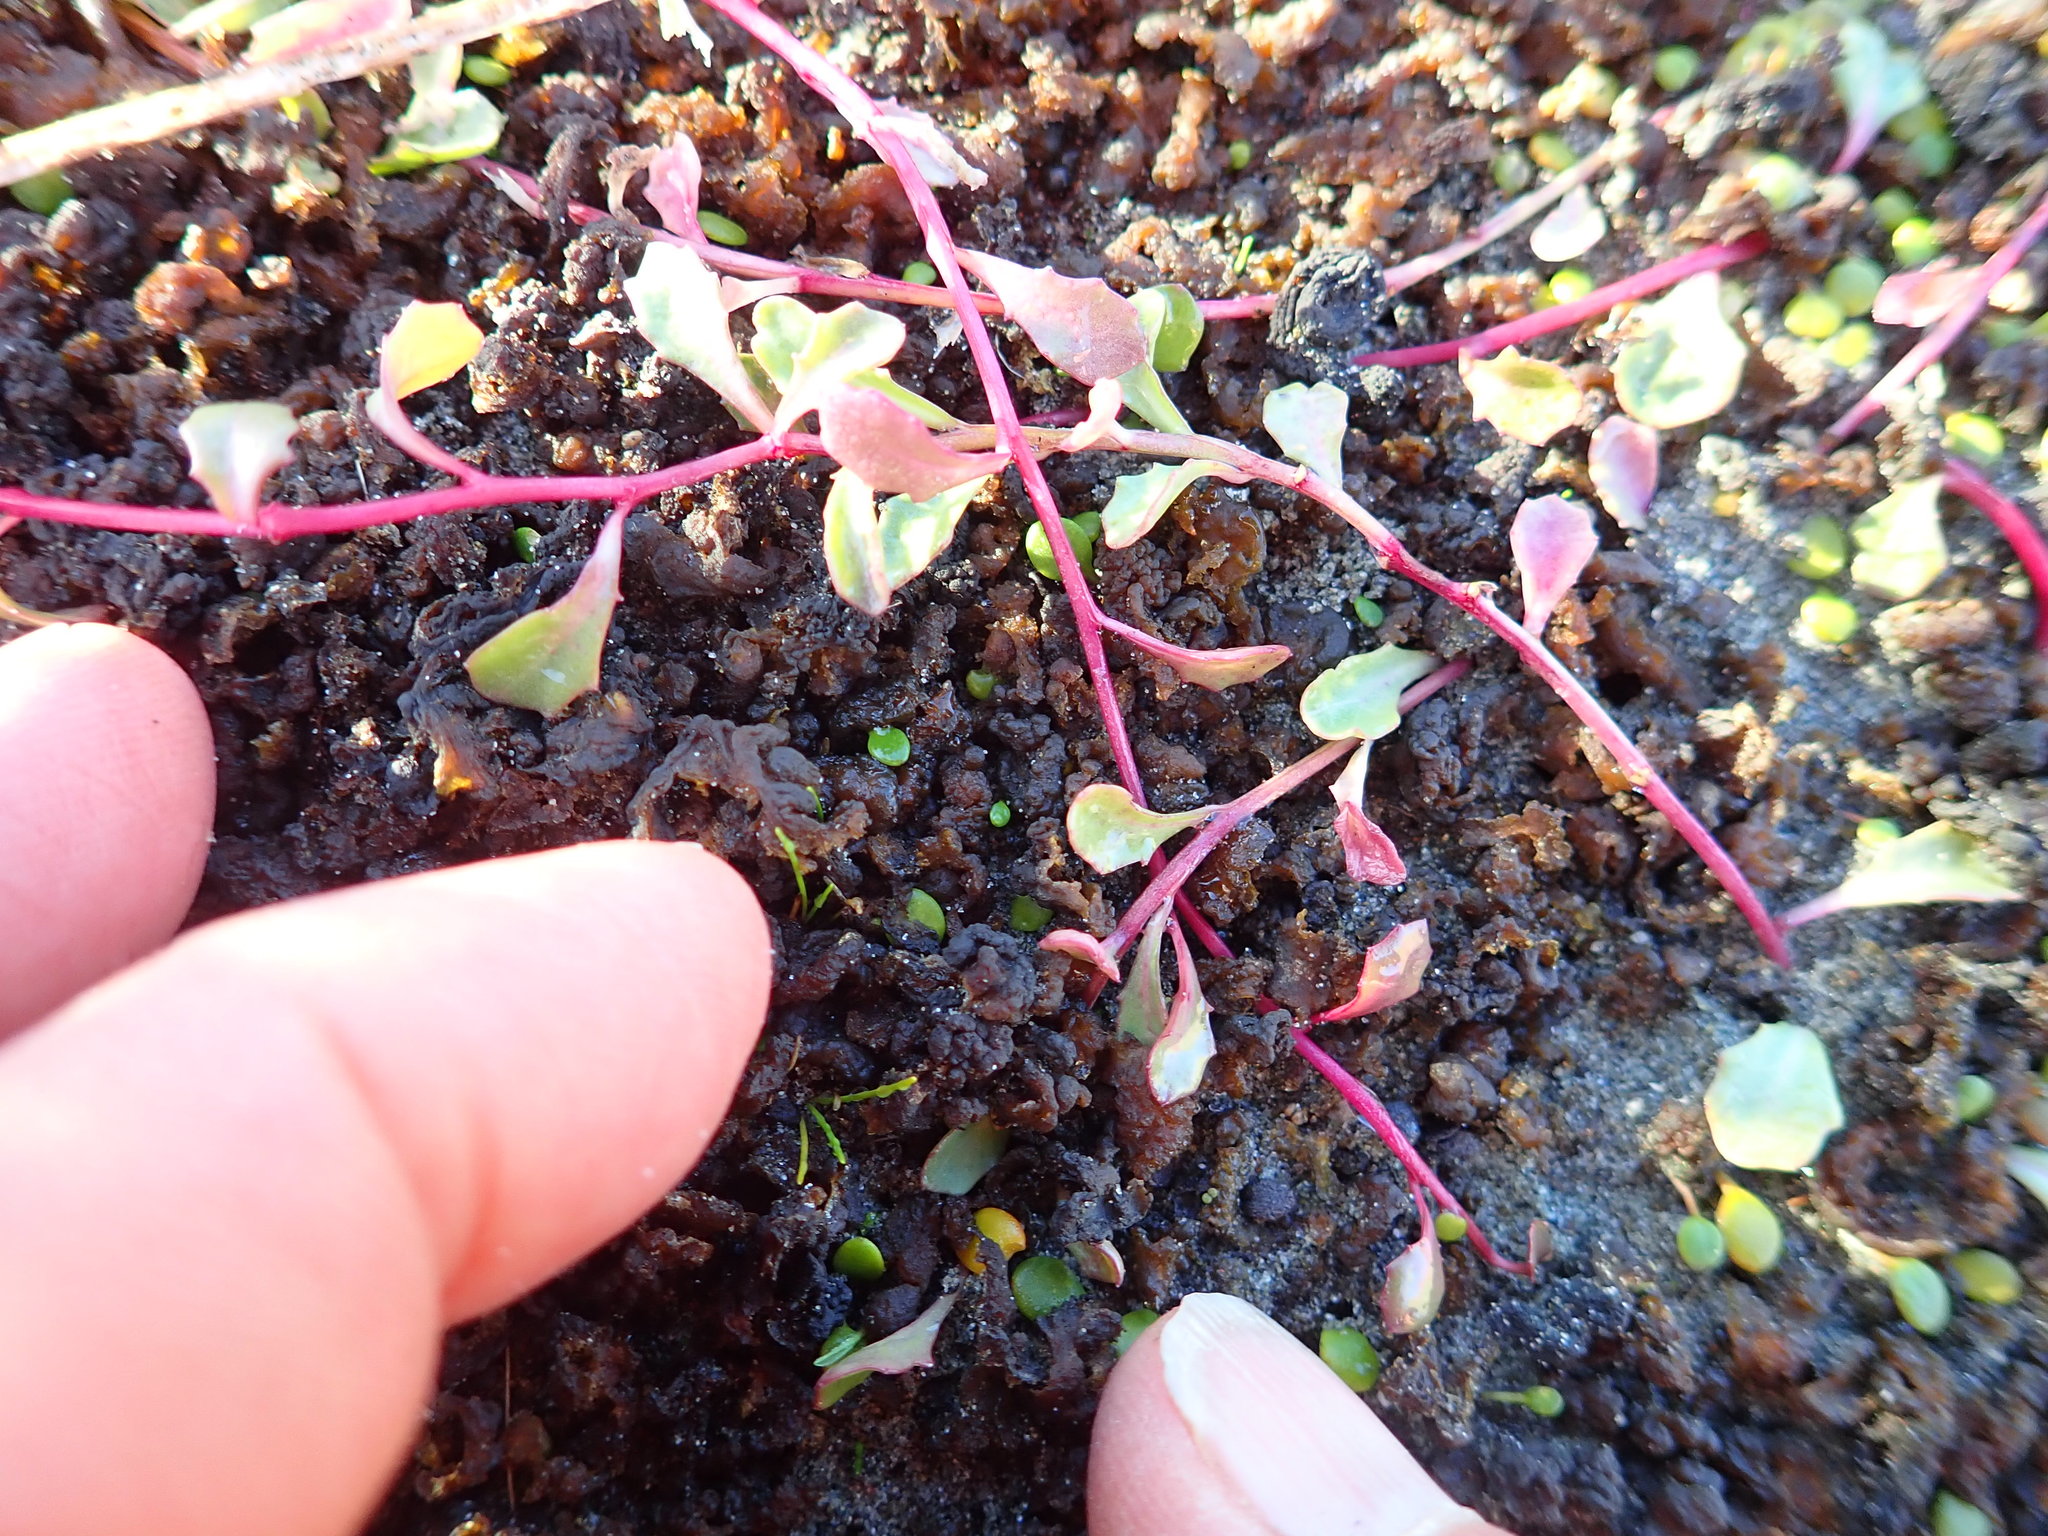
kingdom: Plantae
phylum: Tracheophyta
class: Magnoliopsida
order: Asterales
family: Campanulaceae
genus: Lobelia
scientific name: Lobelia anceps
